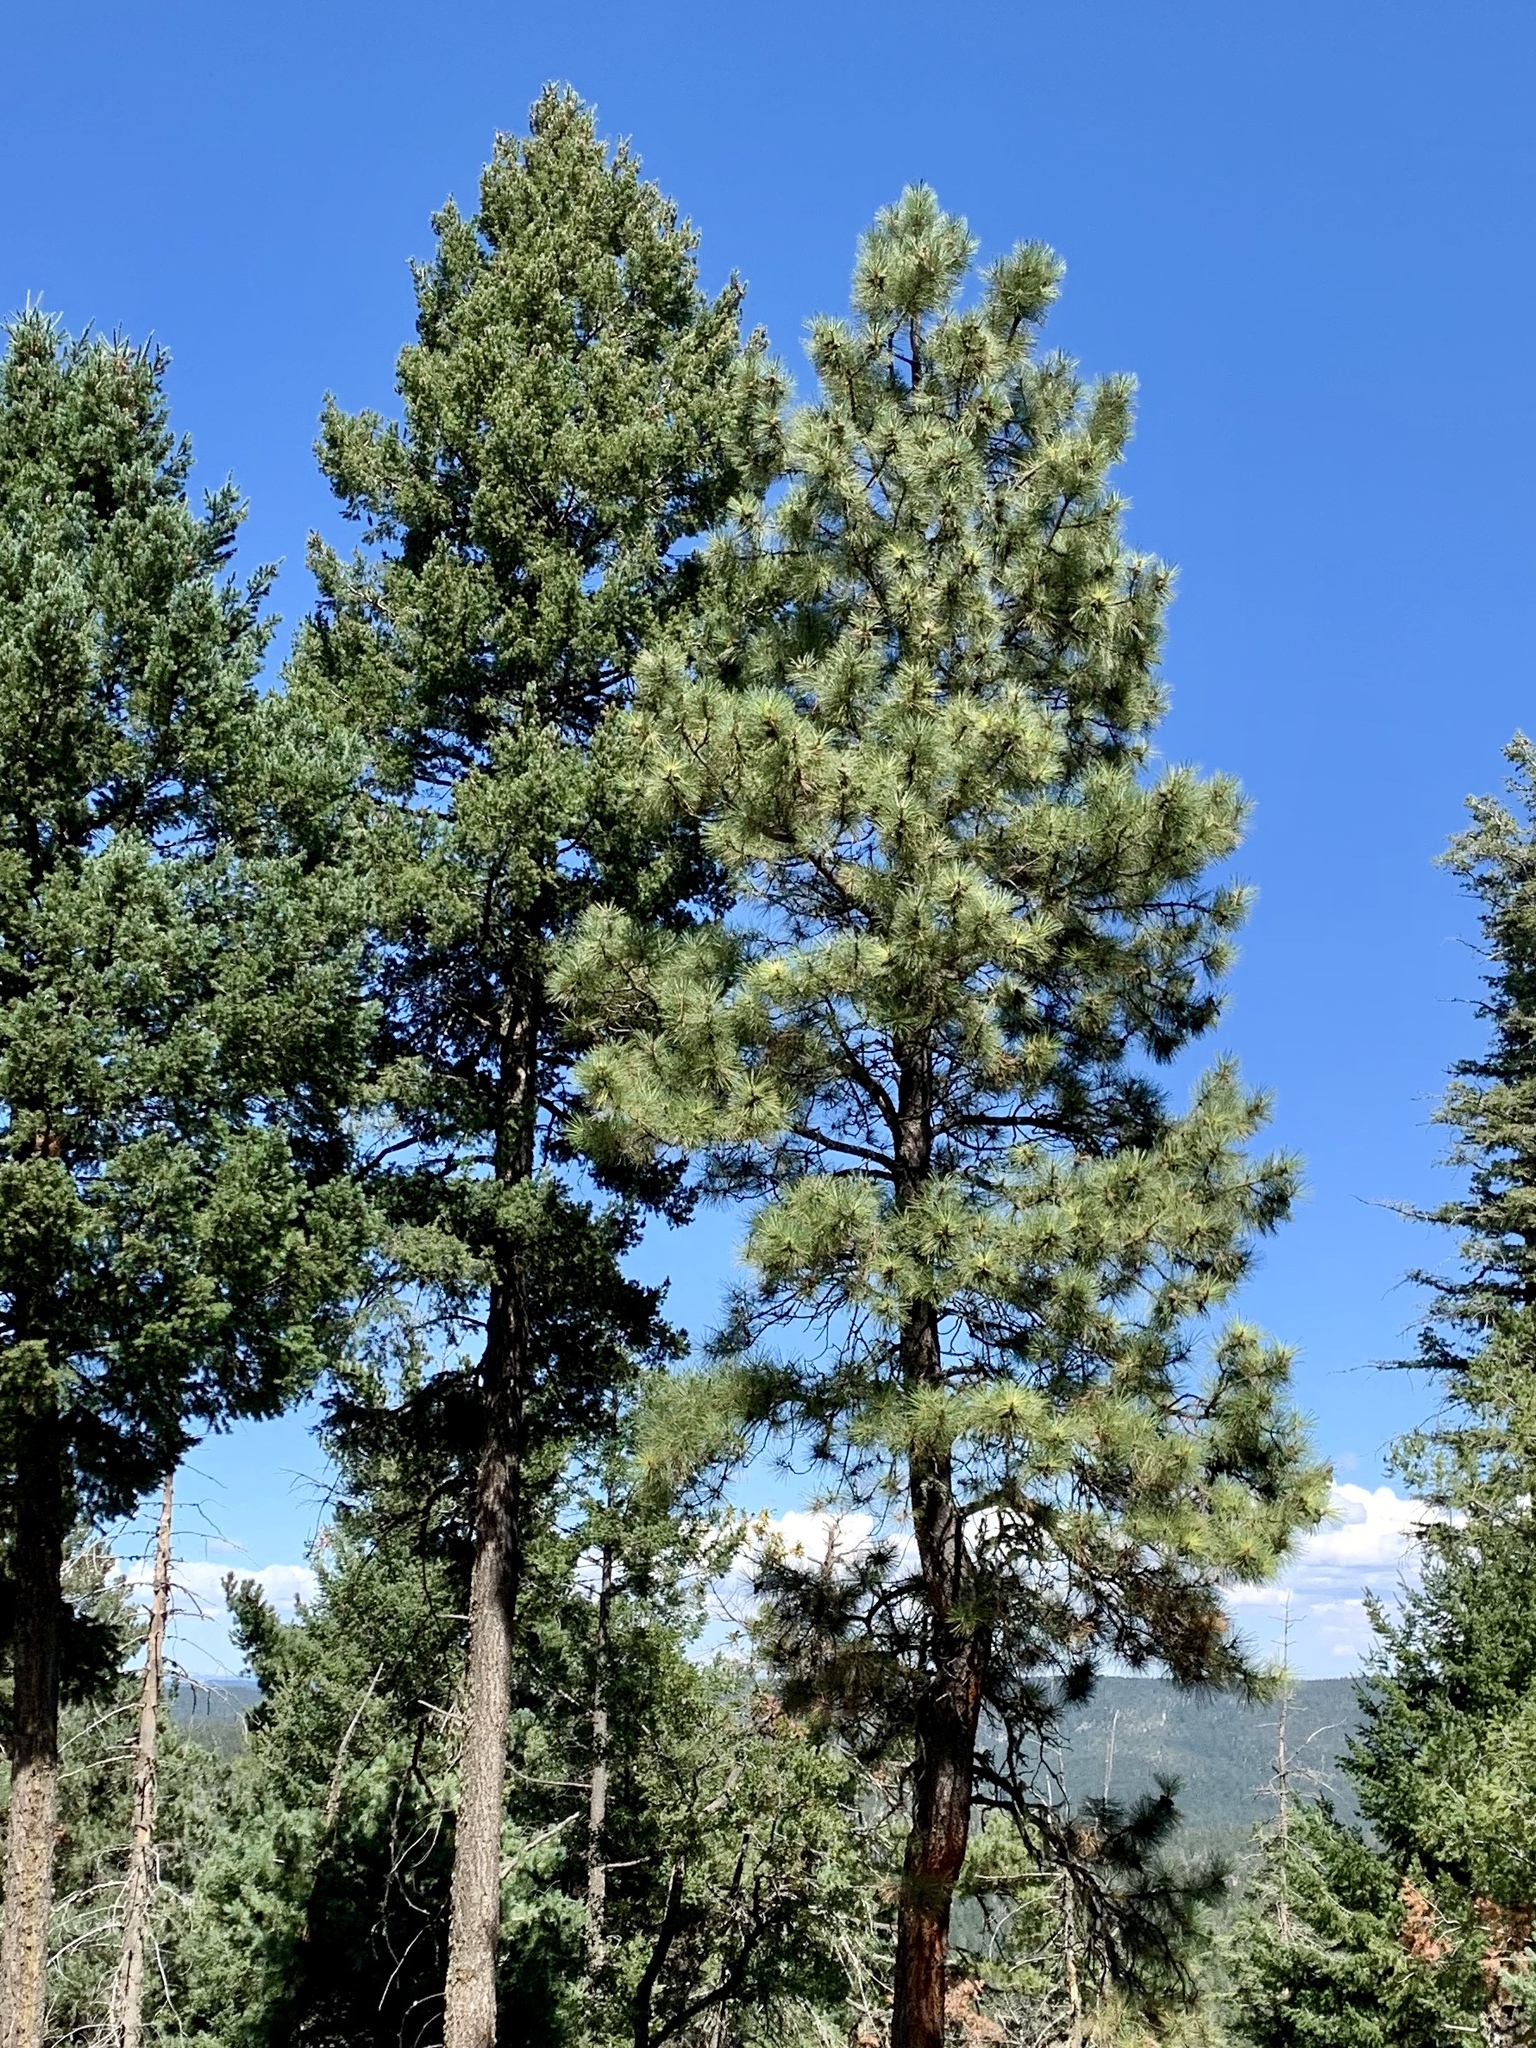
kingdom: Plantae
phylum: Tracheophyta
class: Pinopsida
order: Pinales
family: Pinaceae
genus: Pinus
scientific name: Pinus ponderosa
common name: Western yellow-pine
